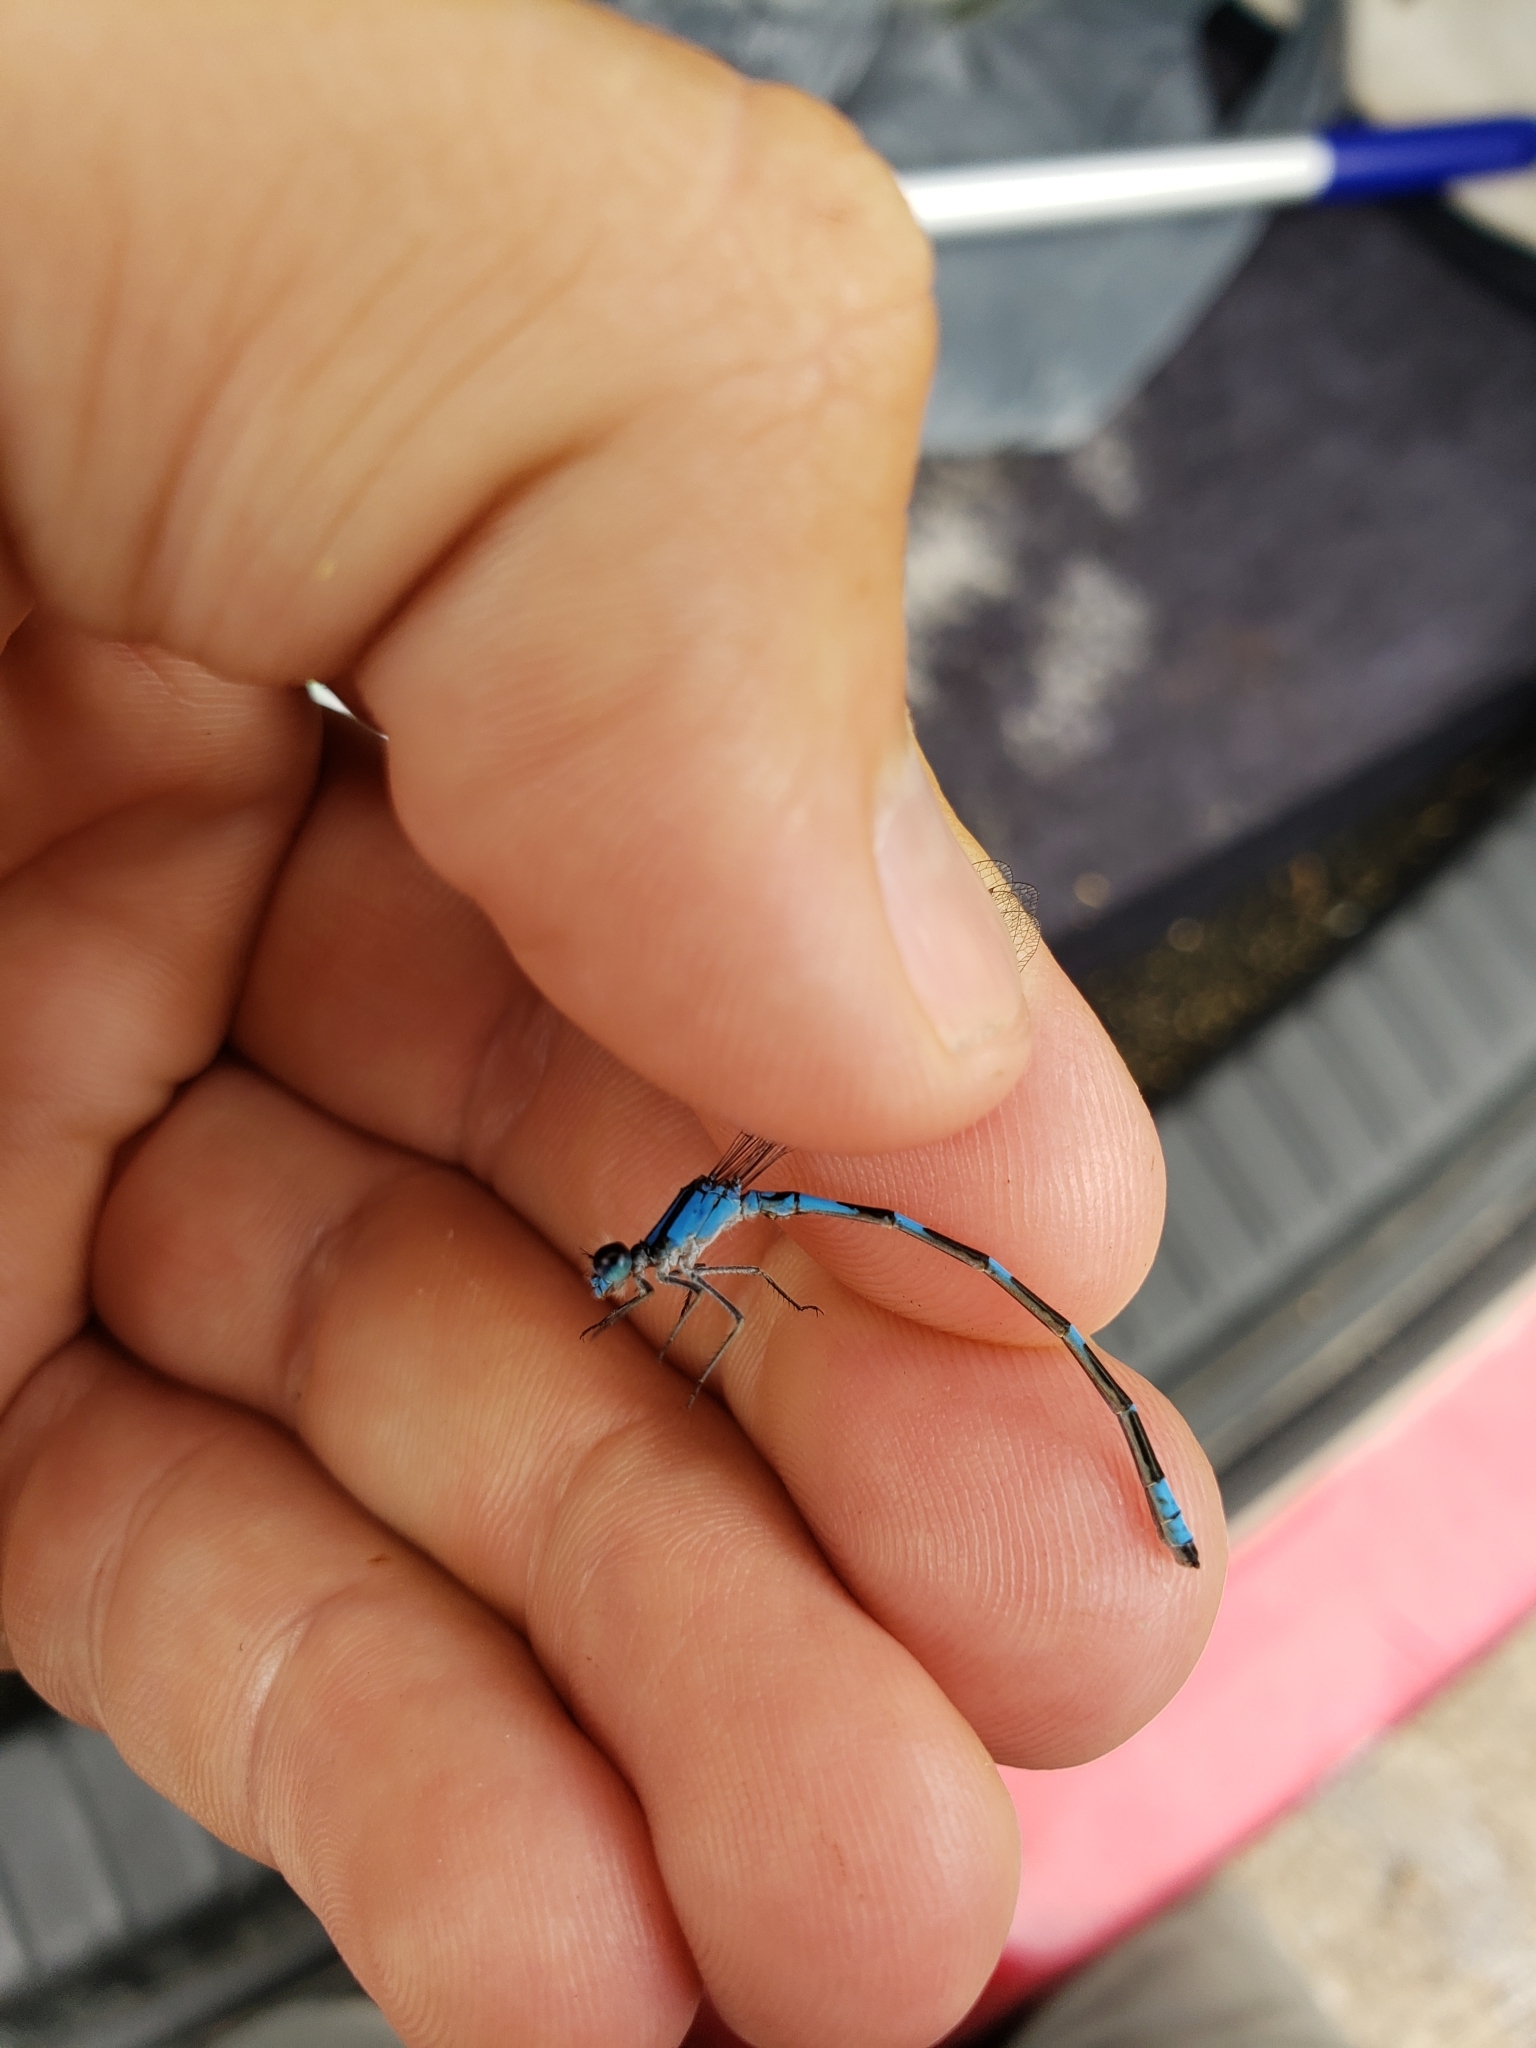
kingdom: Animalia
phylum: Arthropoda
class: Insecta
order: Odonata
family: Coenagrionidae
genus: Enallagma
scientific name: Enallagma carunculatum
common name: Tule bluet
